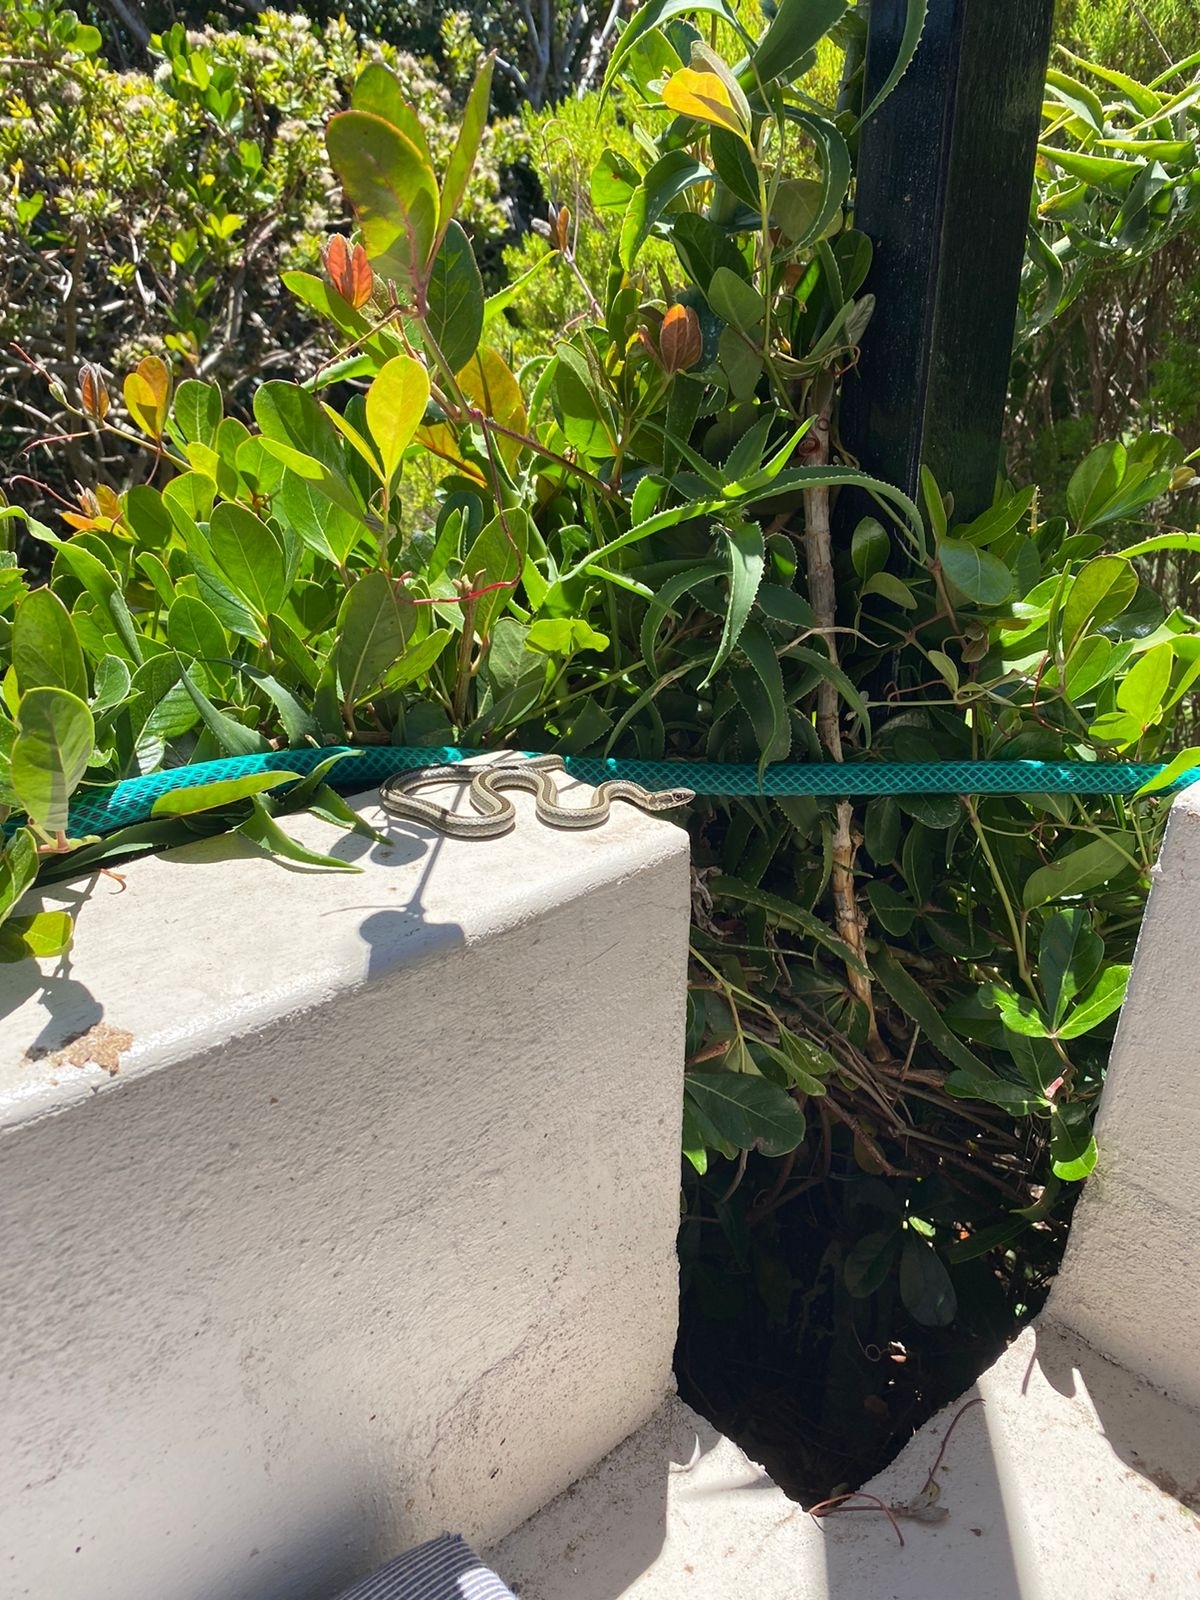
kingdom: Animalia
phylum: Chordata
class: Squamata
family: Psammophiidae
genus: Psammophis
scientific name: Psammophis crucifer
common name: Cross-marked grass snake
